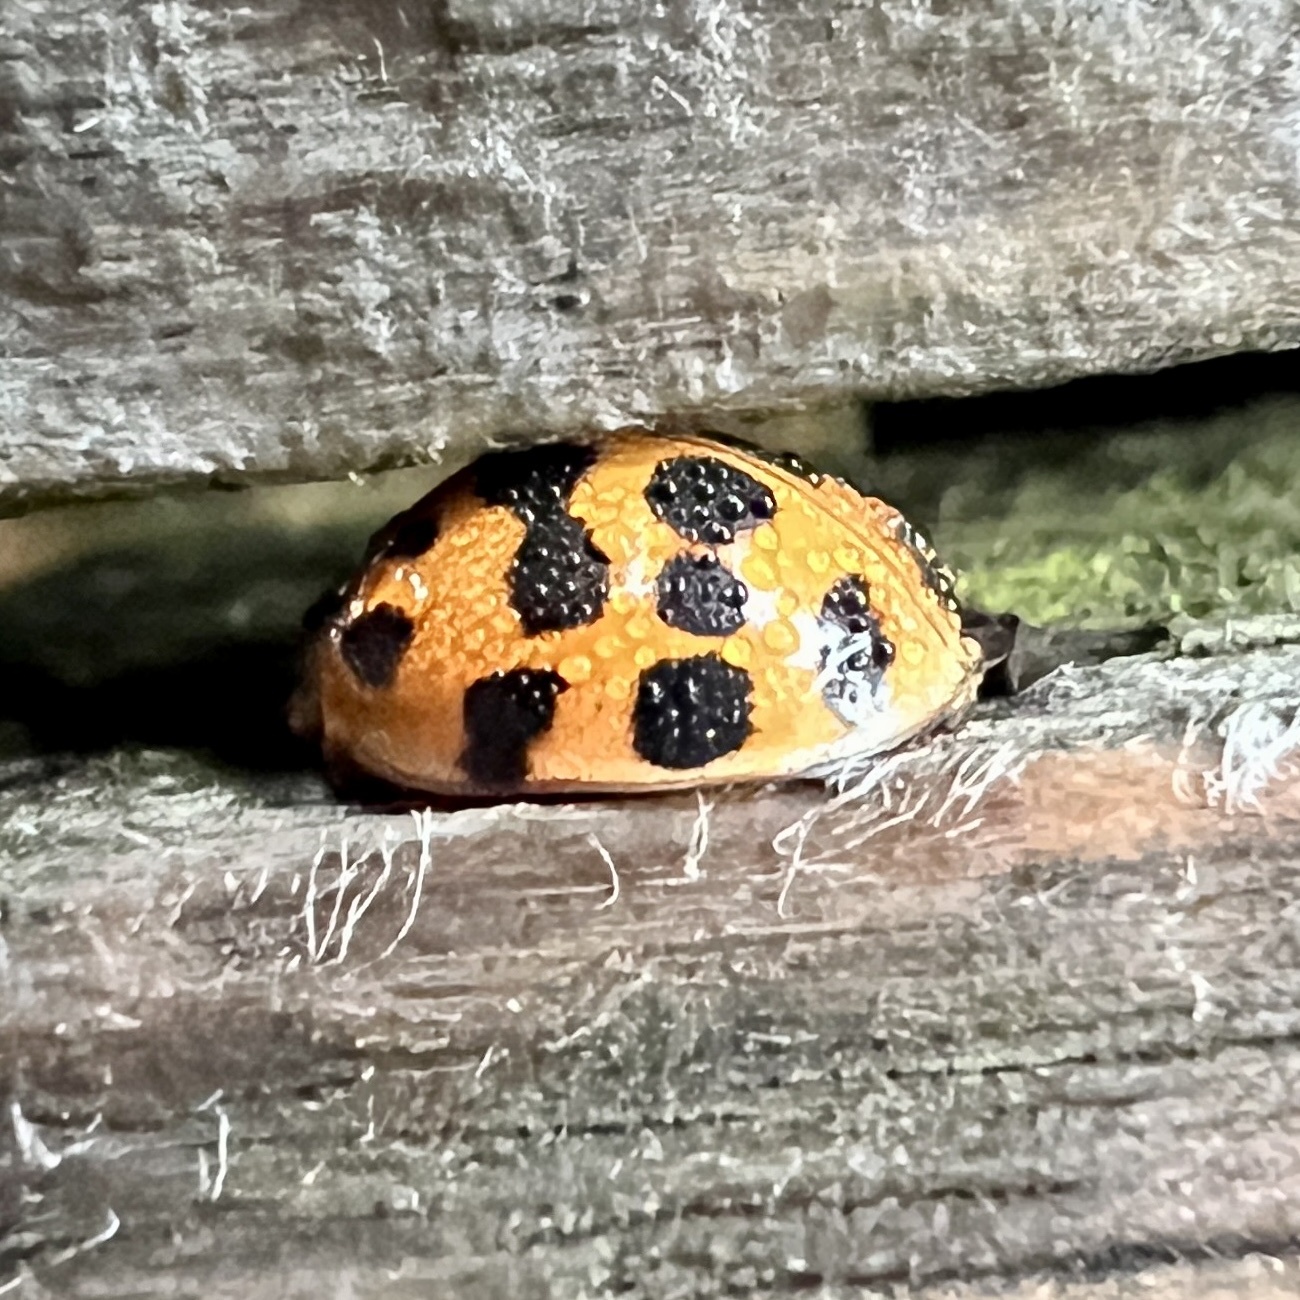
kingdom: Animalia
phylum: Arthropoda
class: Insecta
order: Coleoptera
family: Coccinellidae
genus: Harmonia
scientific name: Harmonia axyridis
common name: Harlequin ladybird
